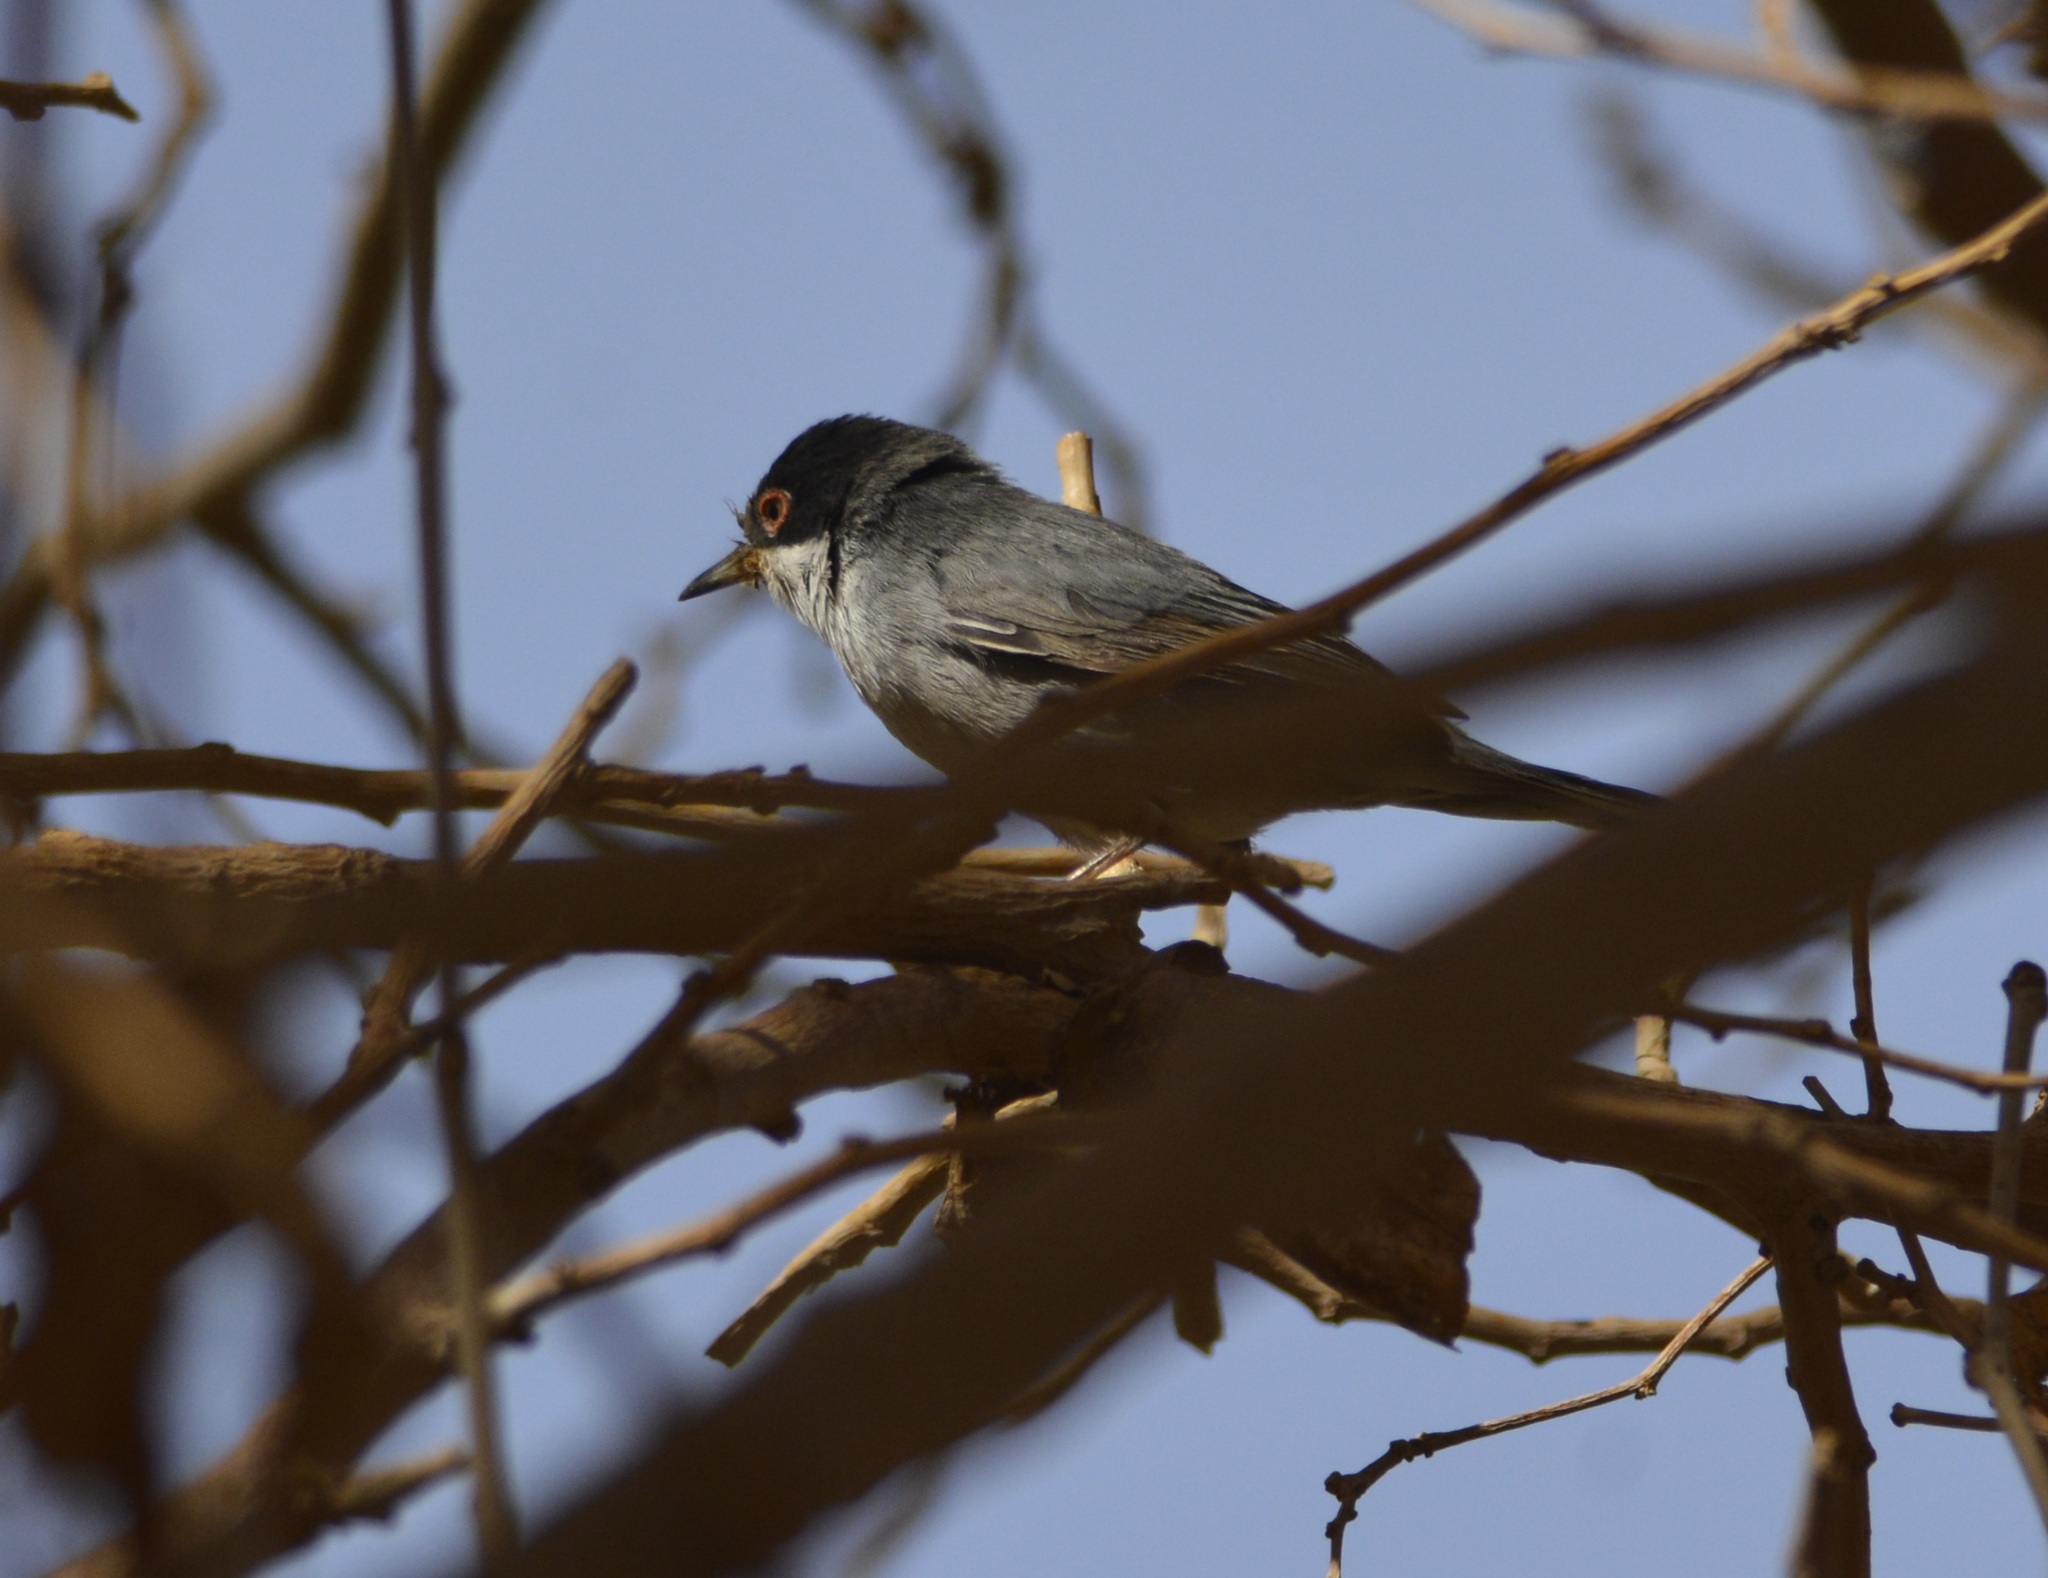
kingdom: Animalia
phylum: Chordata
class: Aves
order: Passeriformes
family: Sylviidae
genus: Curruca
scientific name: Curruca melanocephala
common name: Sardinian warbler
